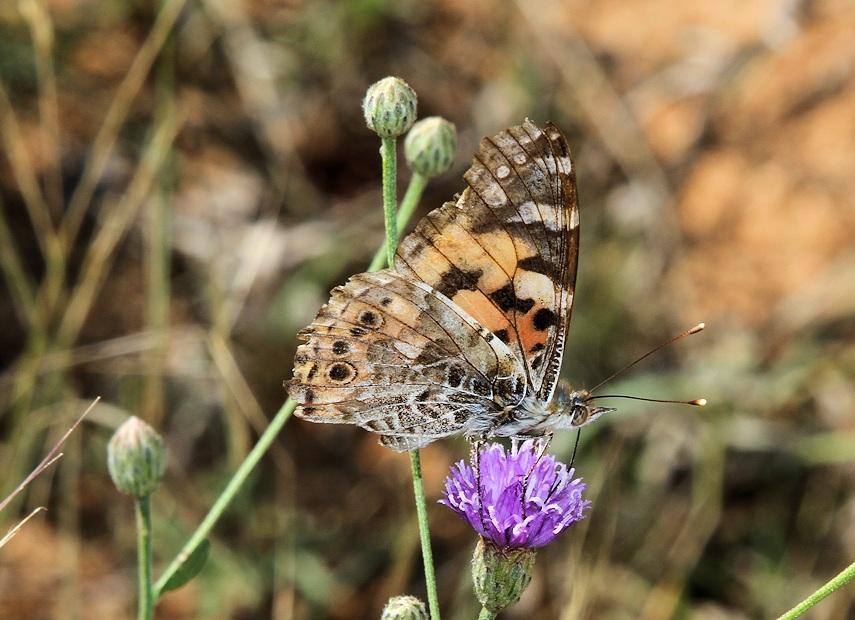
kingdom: Animalia
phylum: Arthropoda
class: Insecta
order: Lepidoptera
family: Nymphalidae
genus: Vanessa
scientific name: Vanessa cardui
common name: Painted lady
